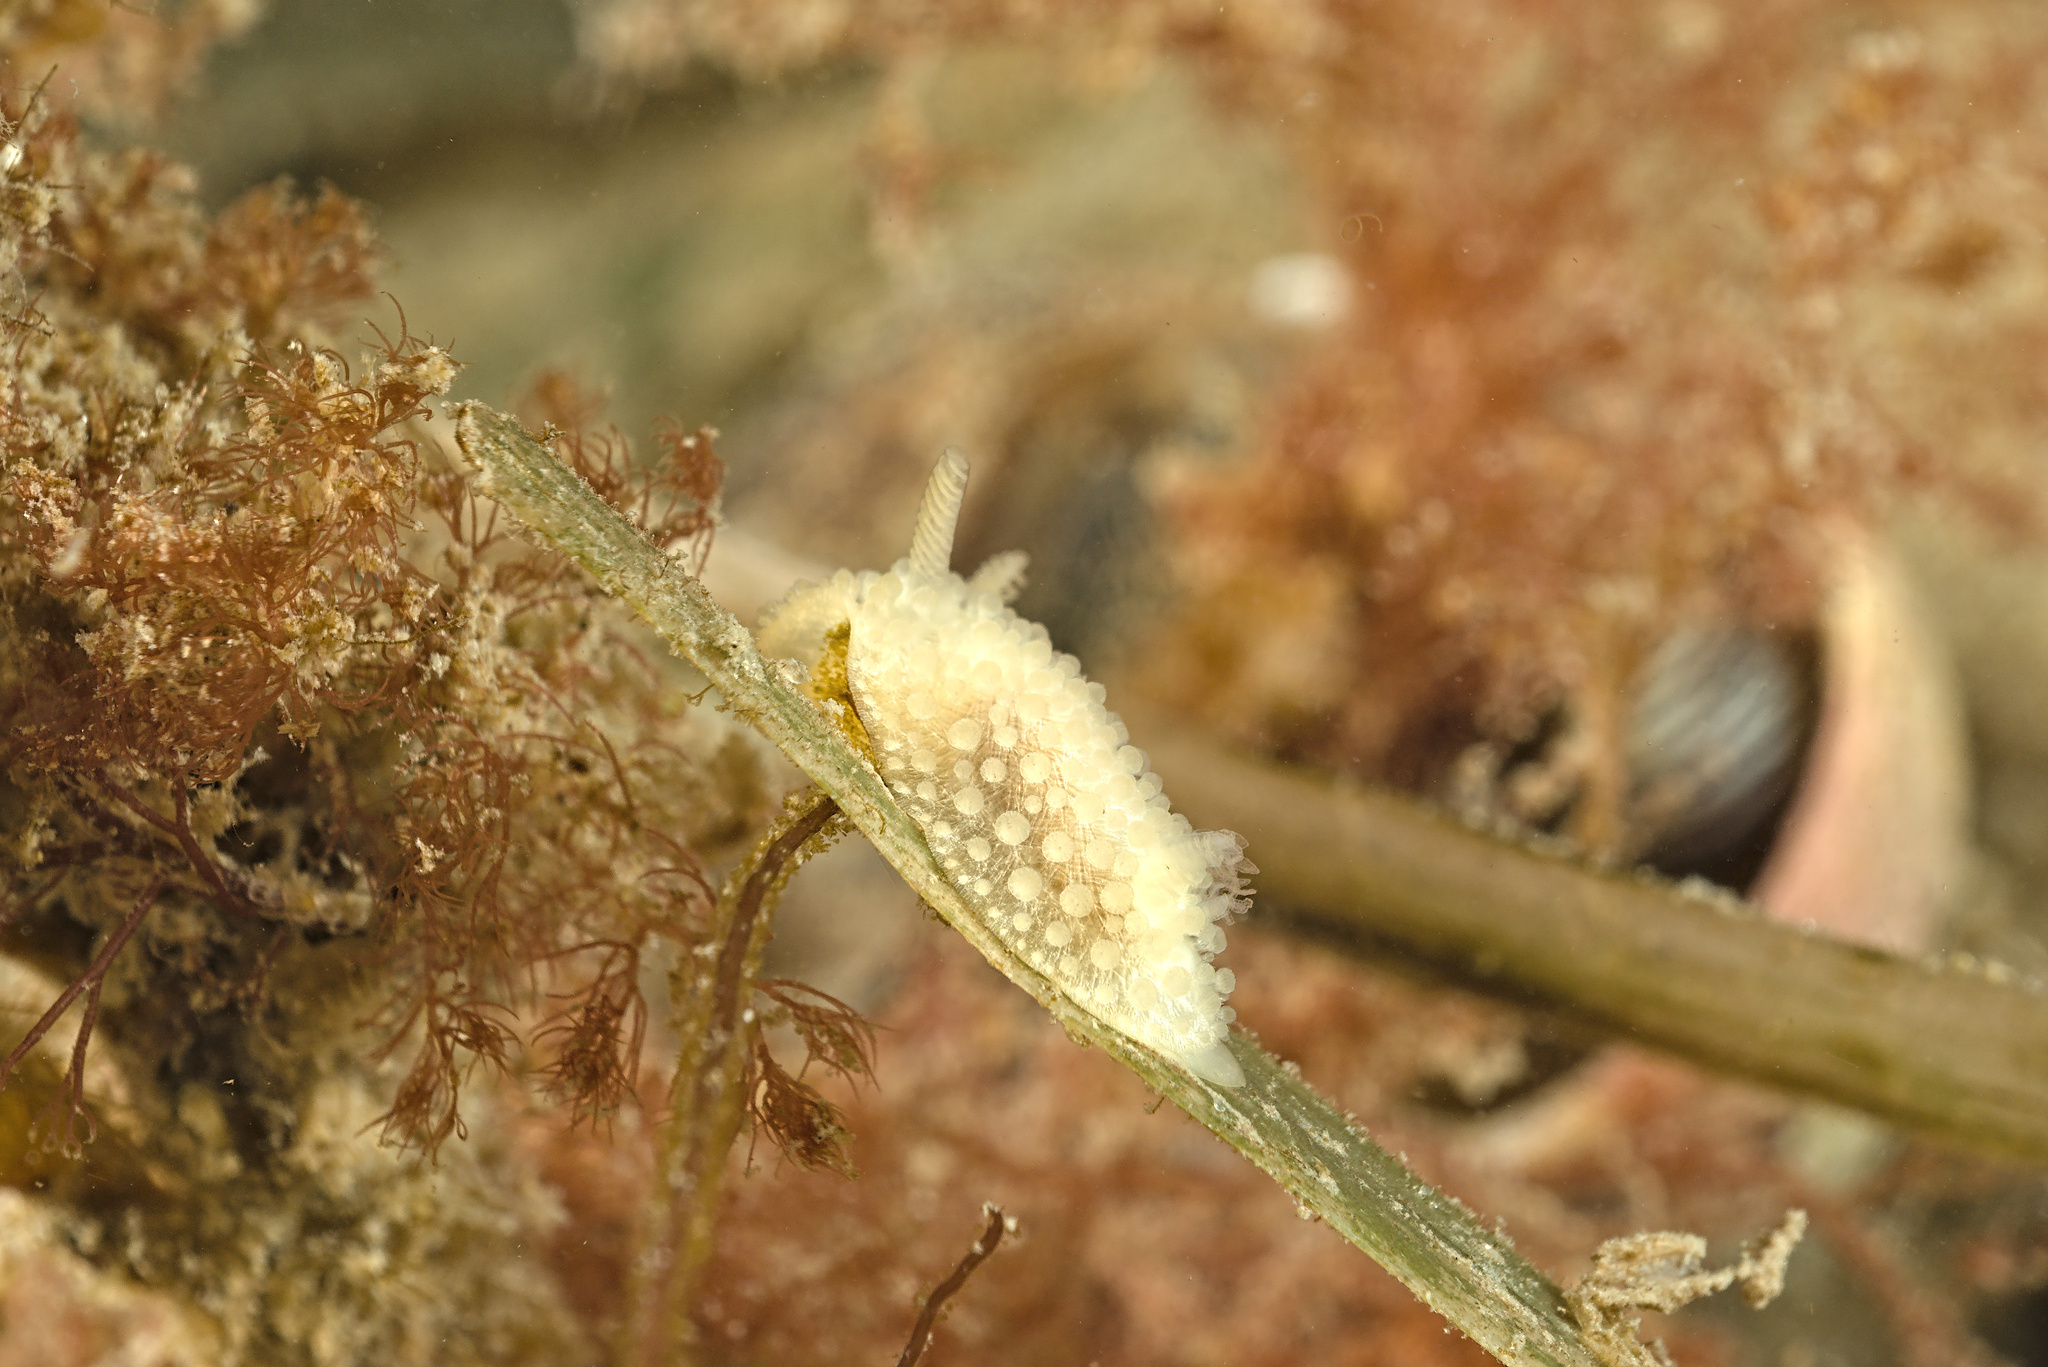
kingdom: Animalia
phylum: Mollusca
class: Gastropoda
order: Nudibranchia
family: Onchidorididae
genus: Onchidoris
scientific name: Onchidoris muricata
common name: Rough doris
